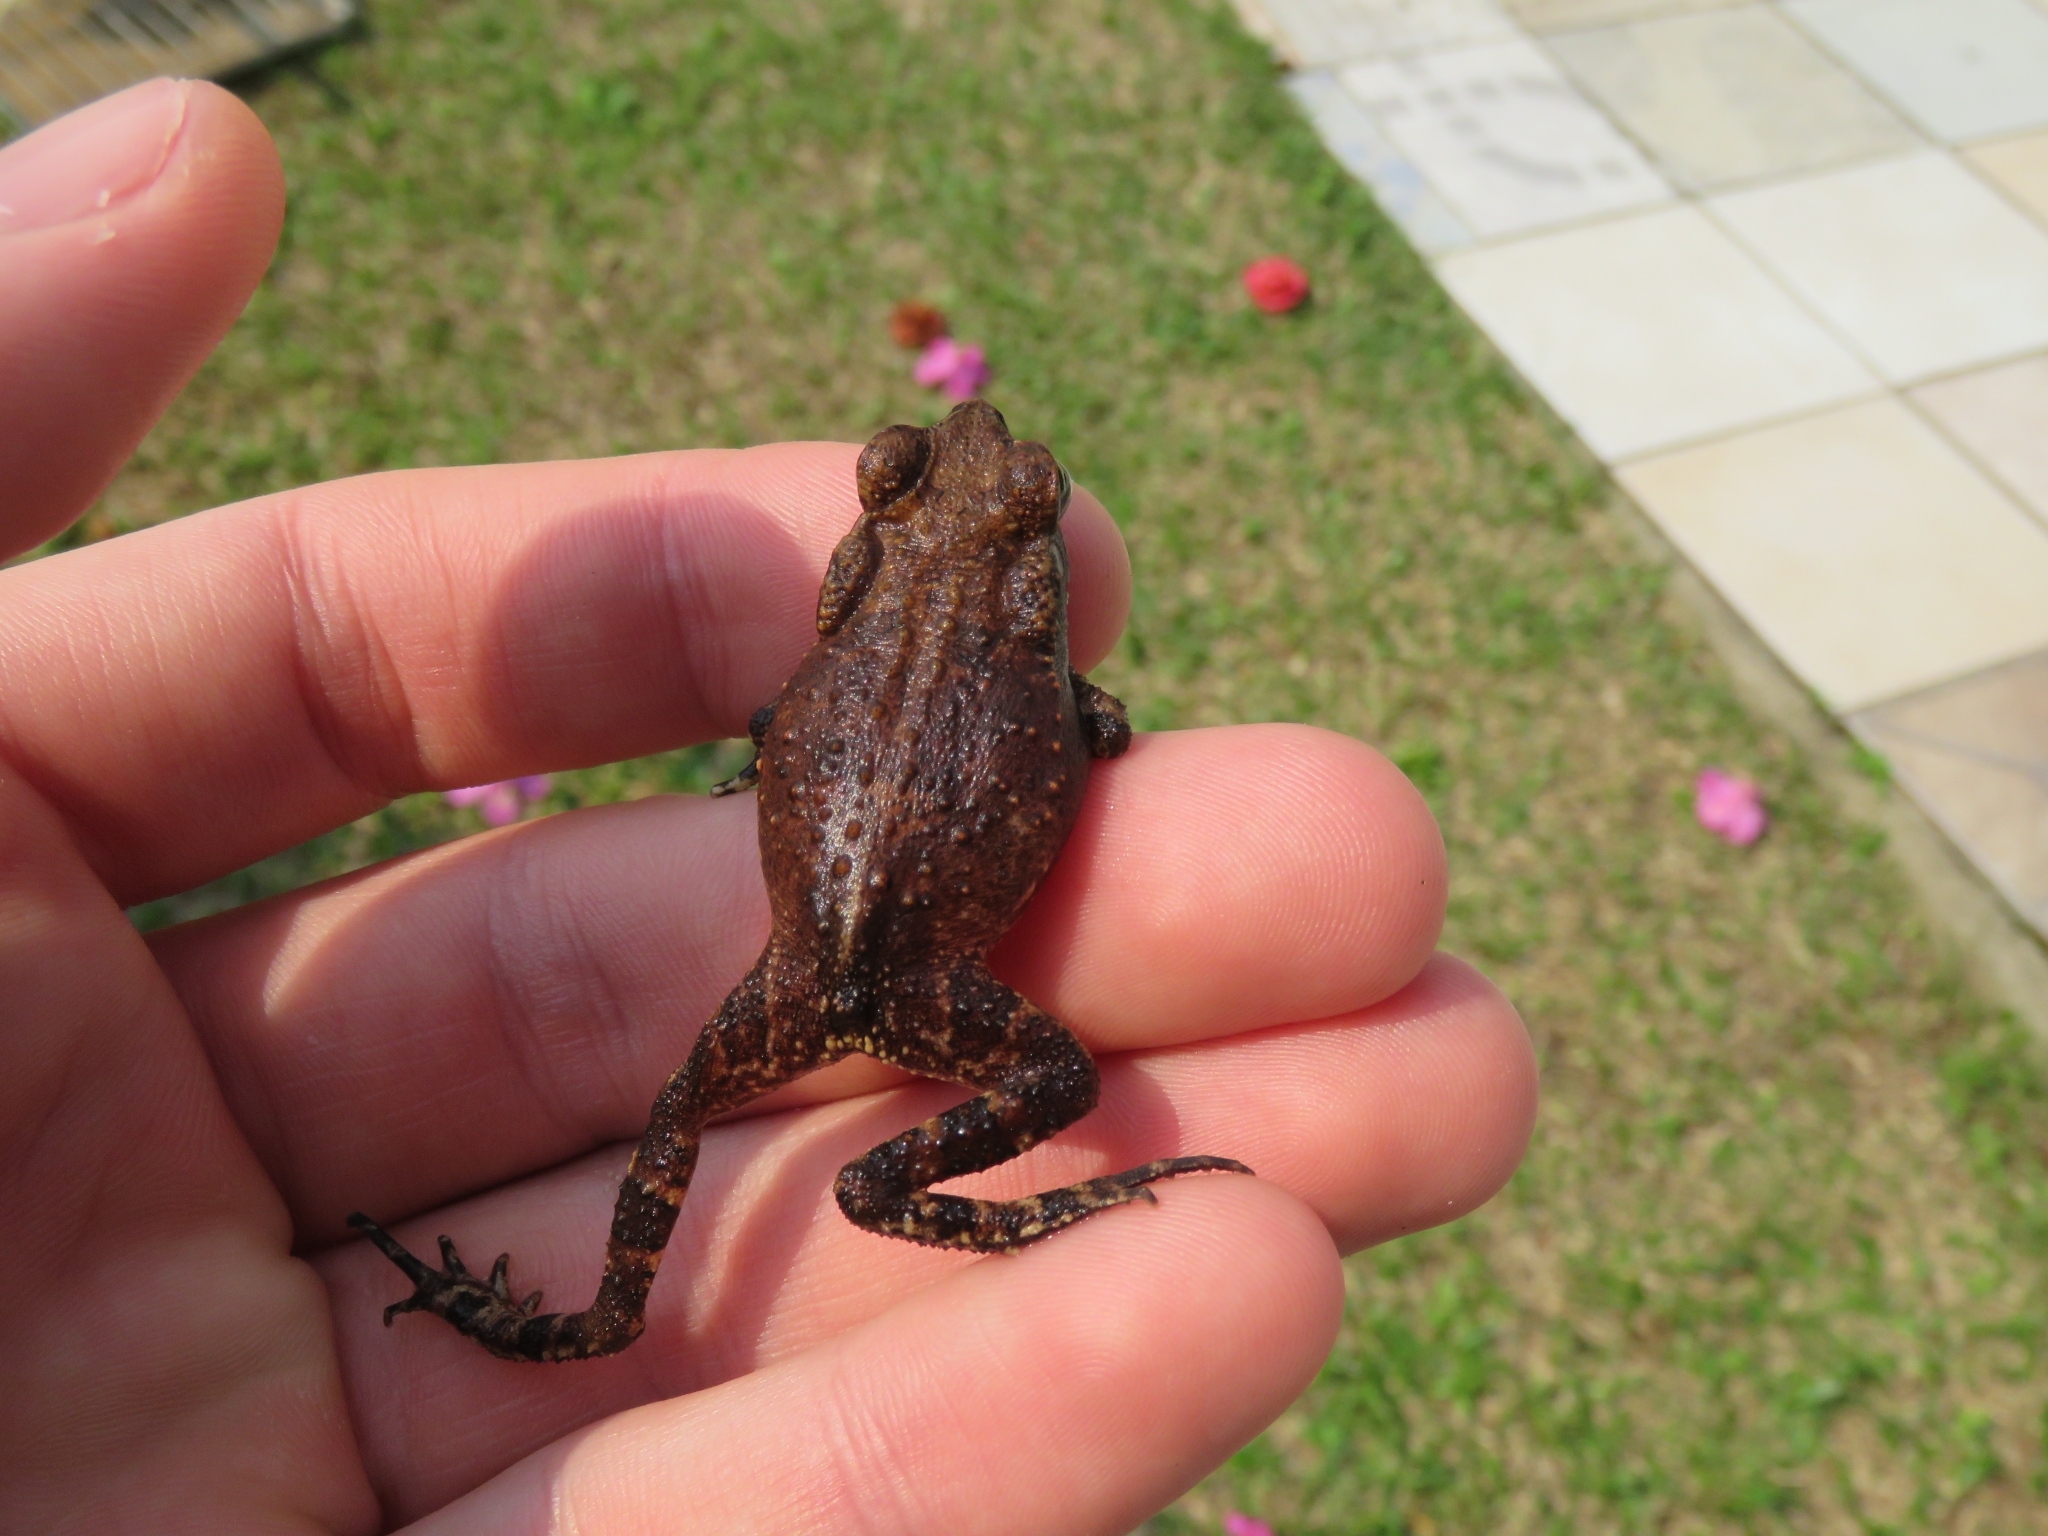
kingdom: Animalia
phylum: Chordata
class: Amphibia
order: Anura
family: Bufonidae
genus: Rhinella
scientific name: Rhinella ornata
